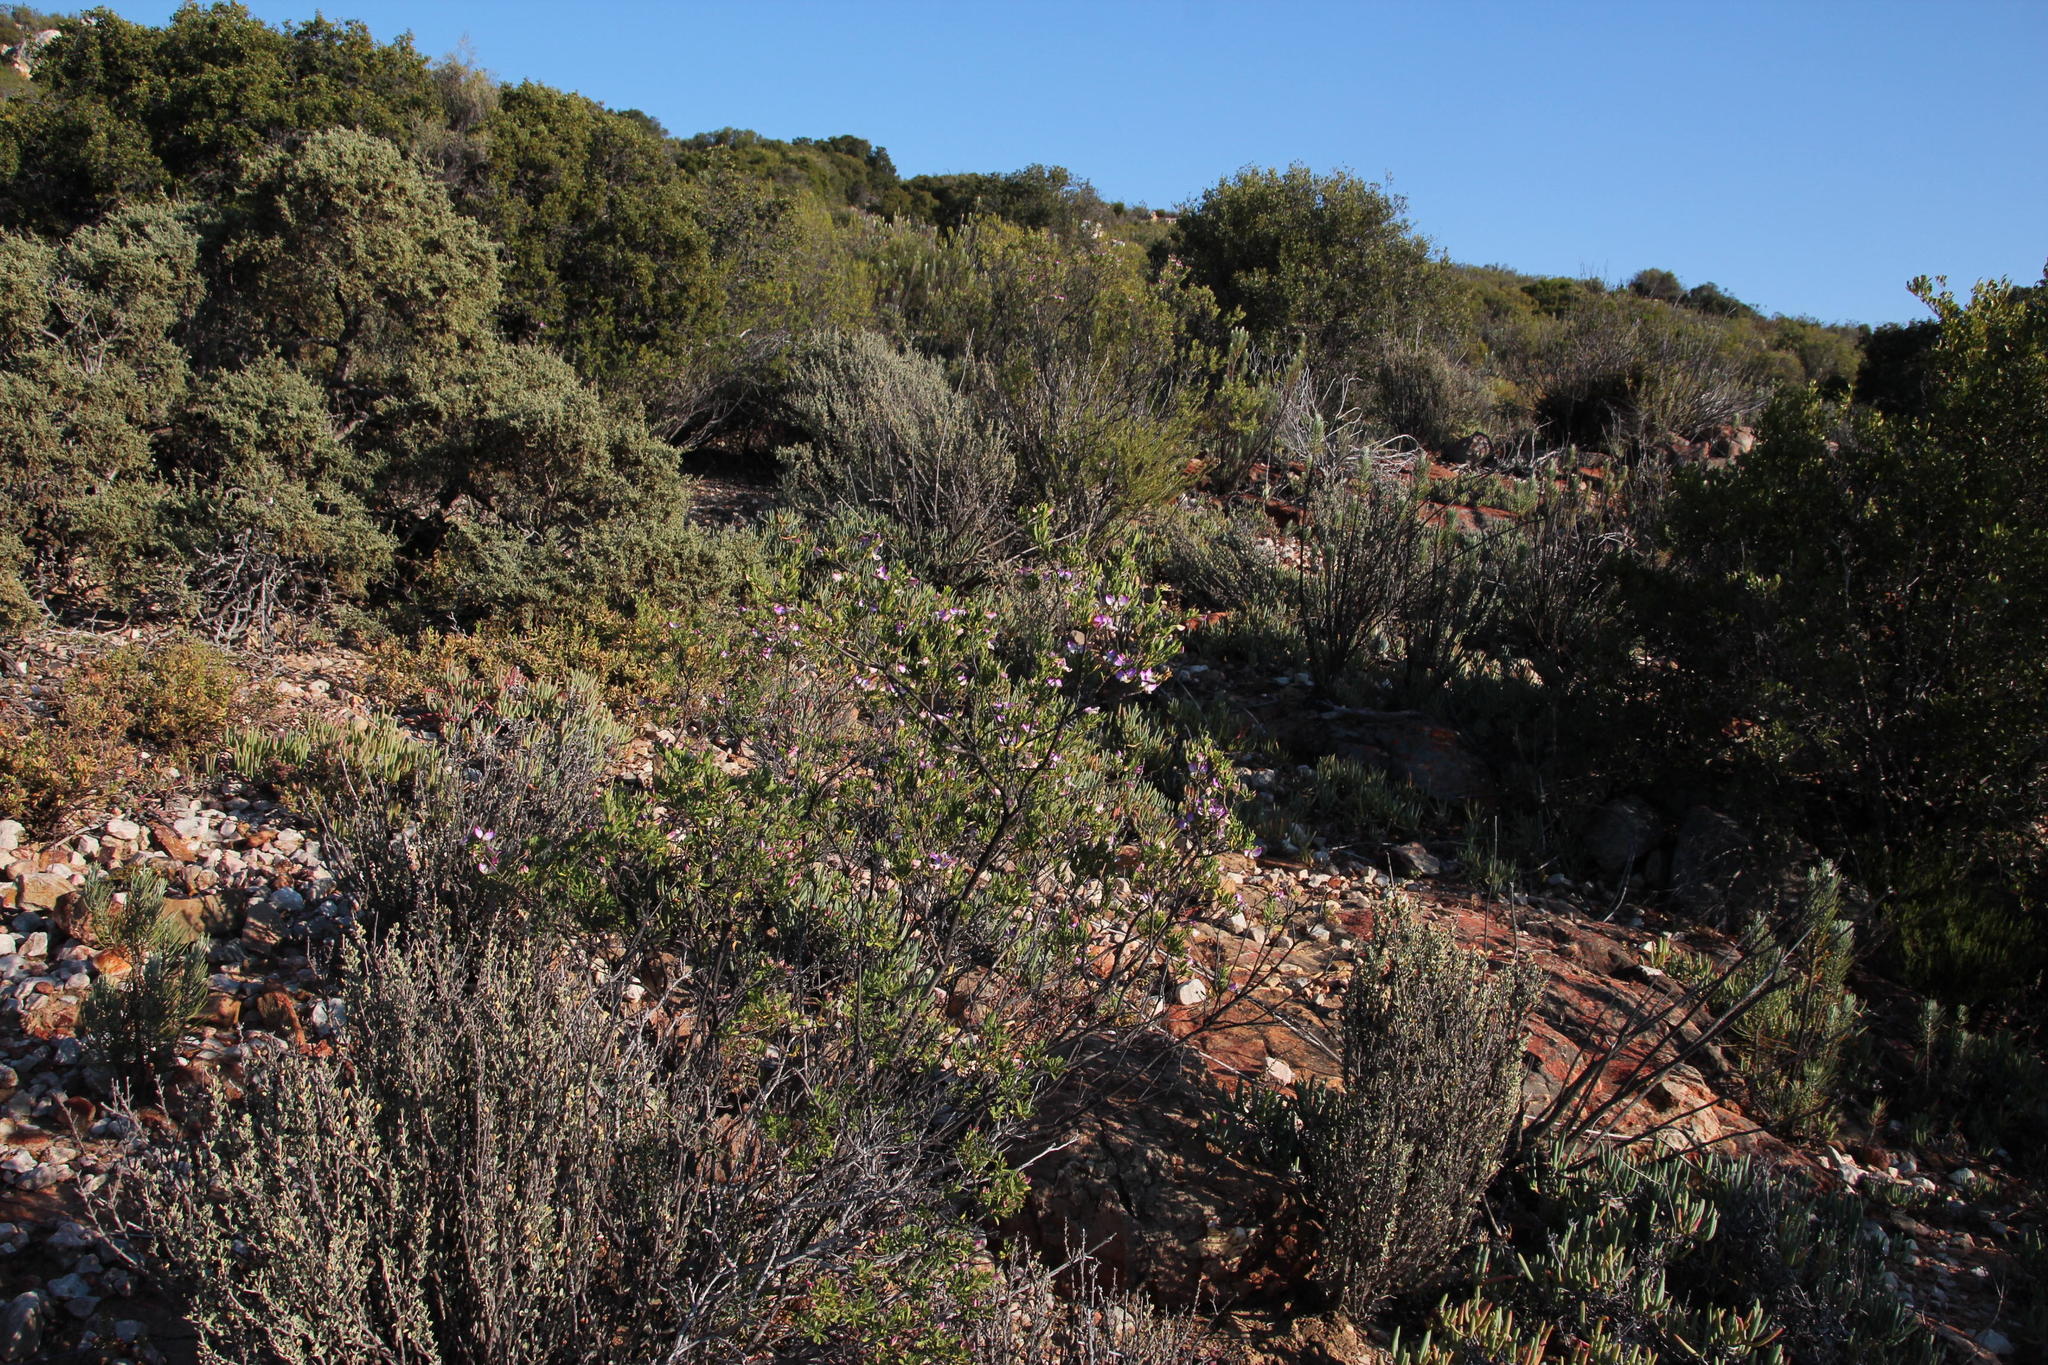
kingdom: Plantae
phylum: Tracheophyta
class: Magnoliopsida
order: Fabales
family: Polygalaceae
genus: Polygala
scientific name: Polygala myrtifolia
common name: Myrtle-leaf milkwort
